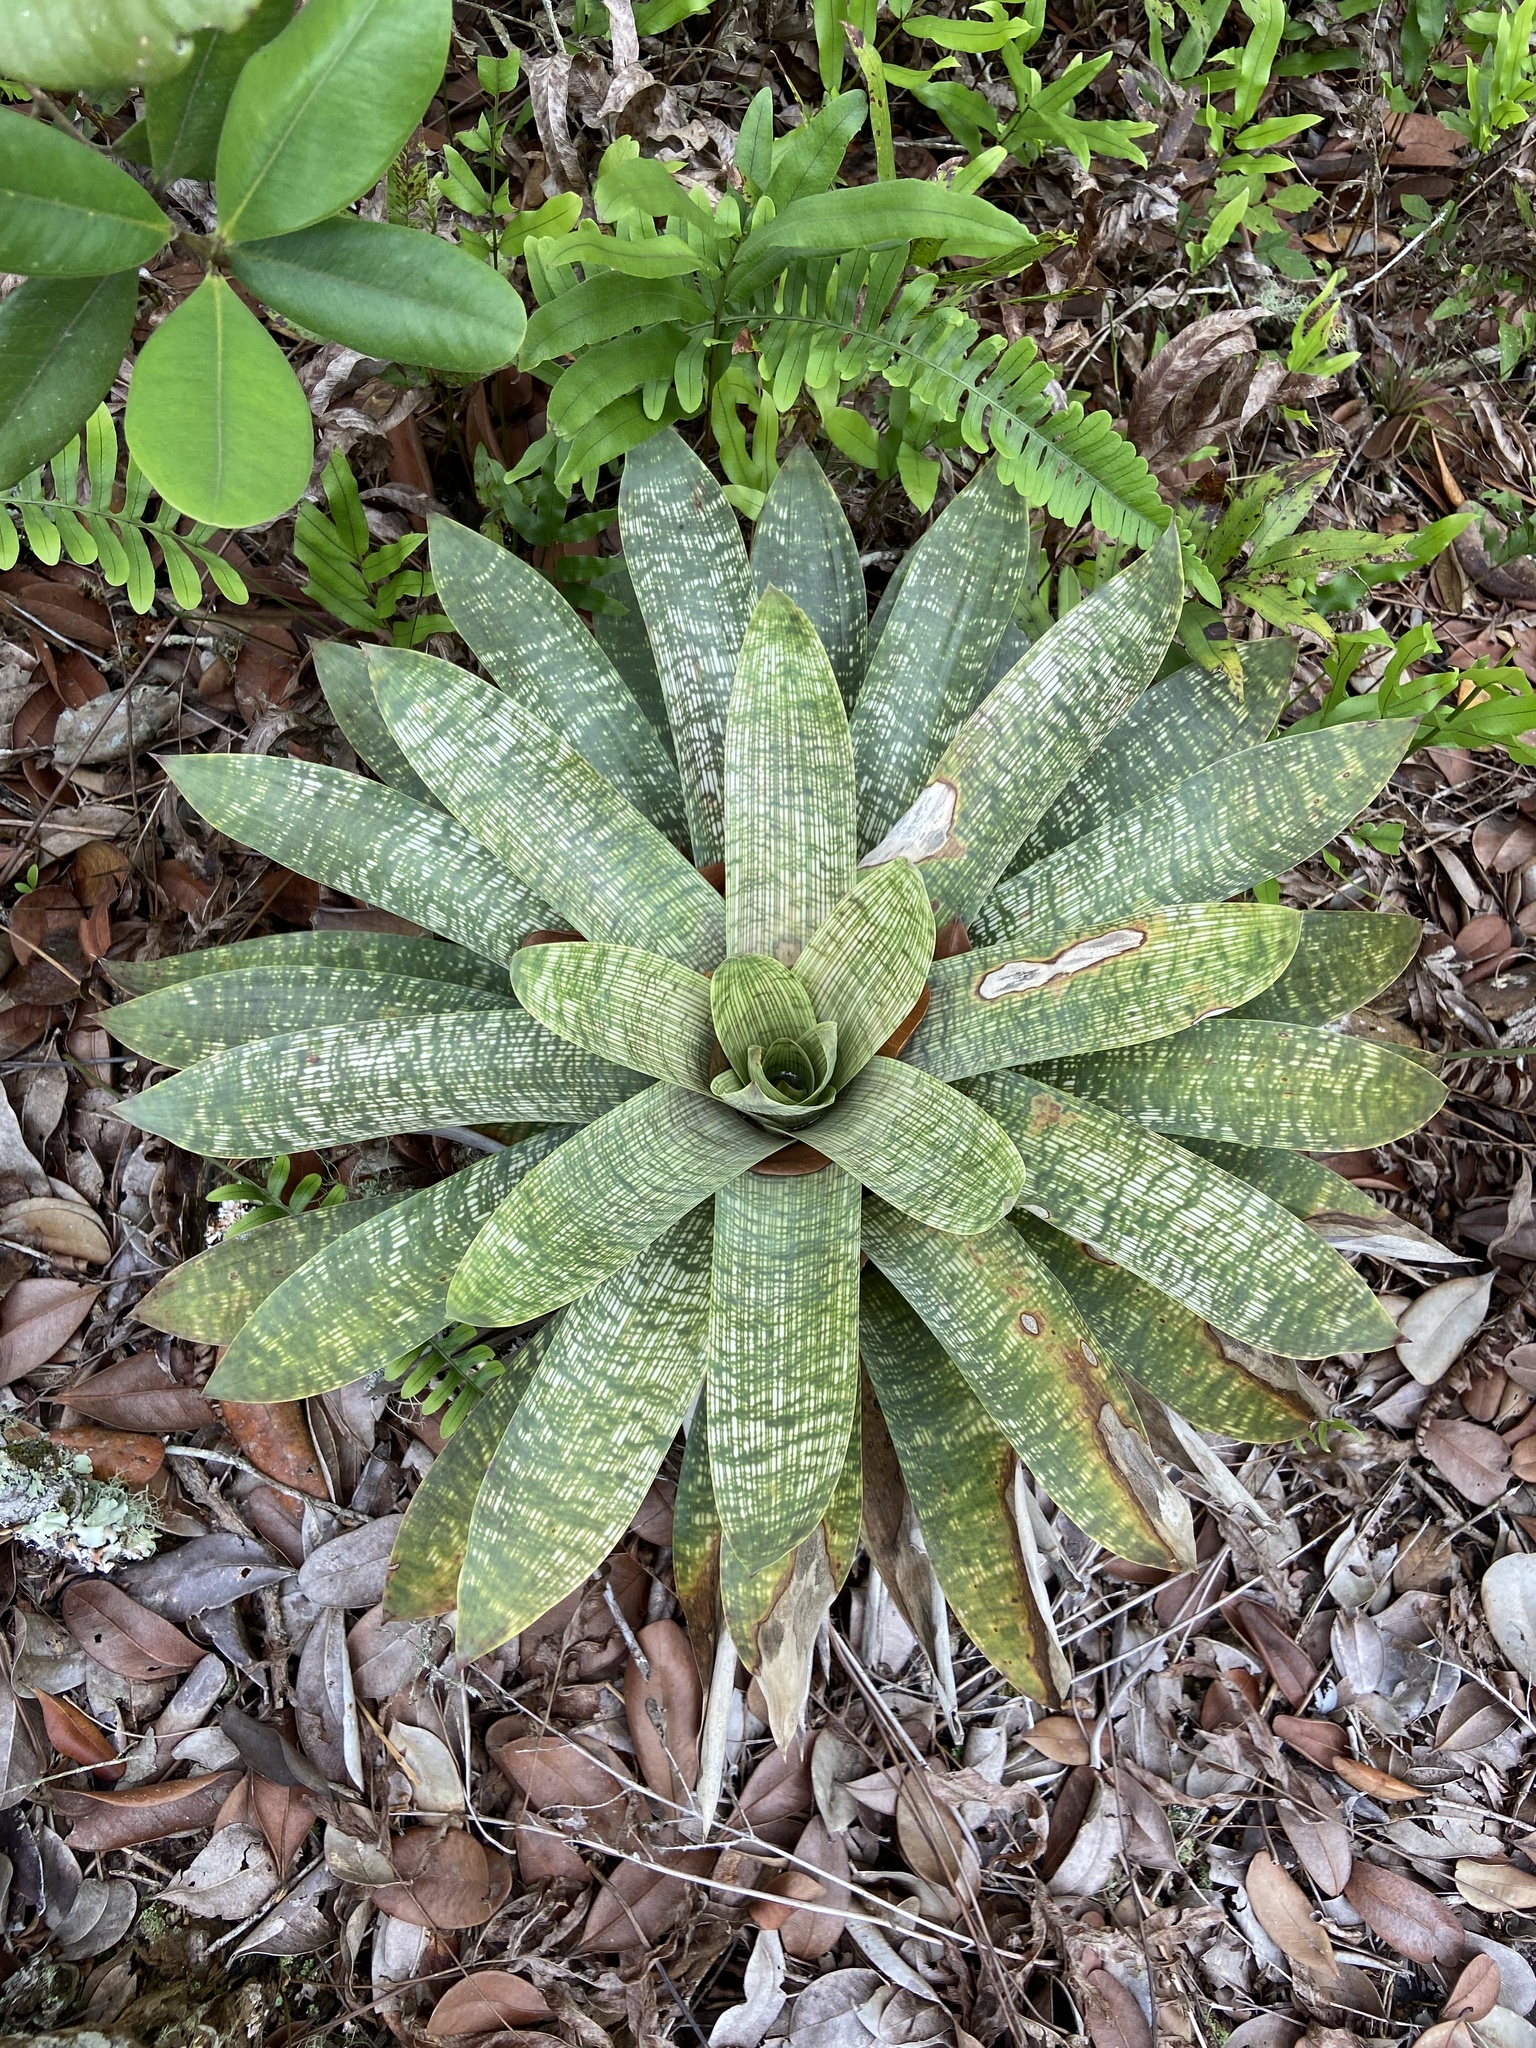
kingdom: Plantae
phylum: Tracheophyta
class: Liliopsida
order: Poales
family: Bromeliaceae
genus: Vriesea
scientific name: Vriesea gigantea
